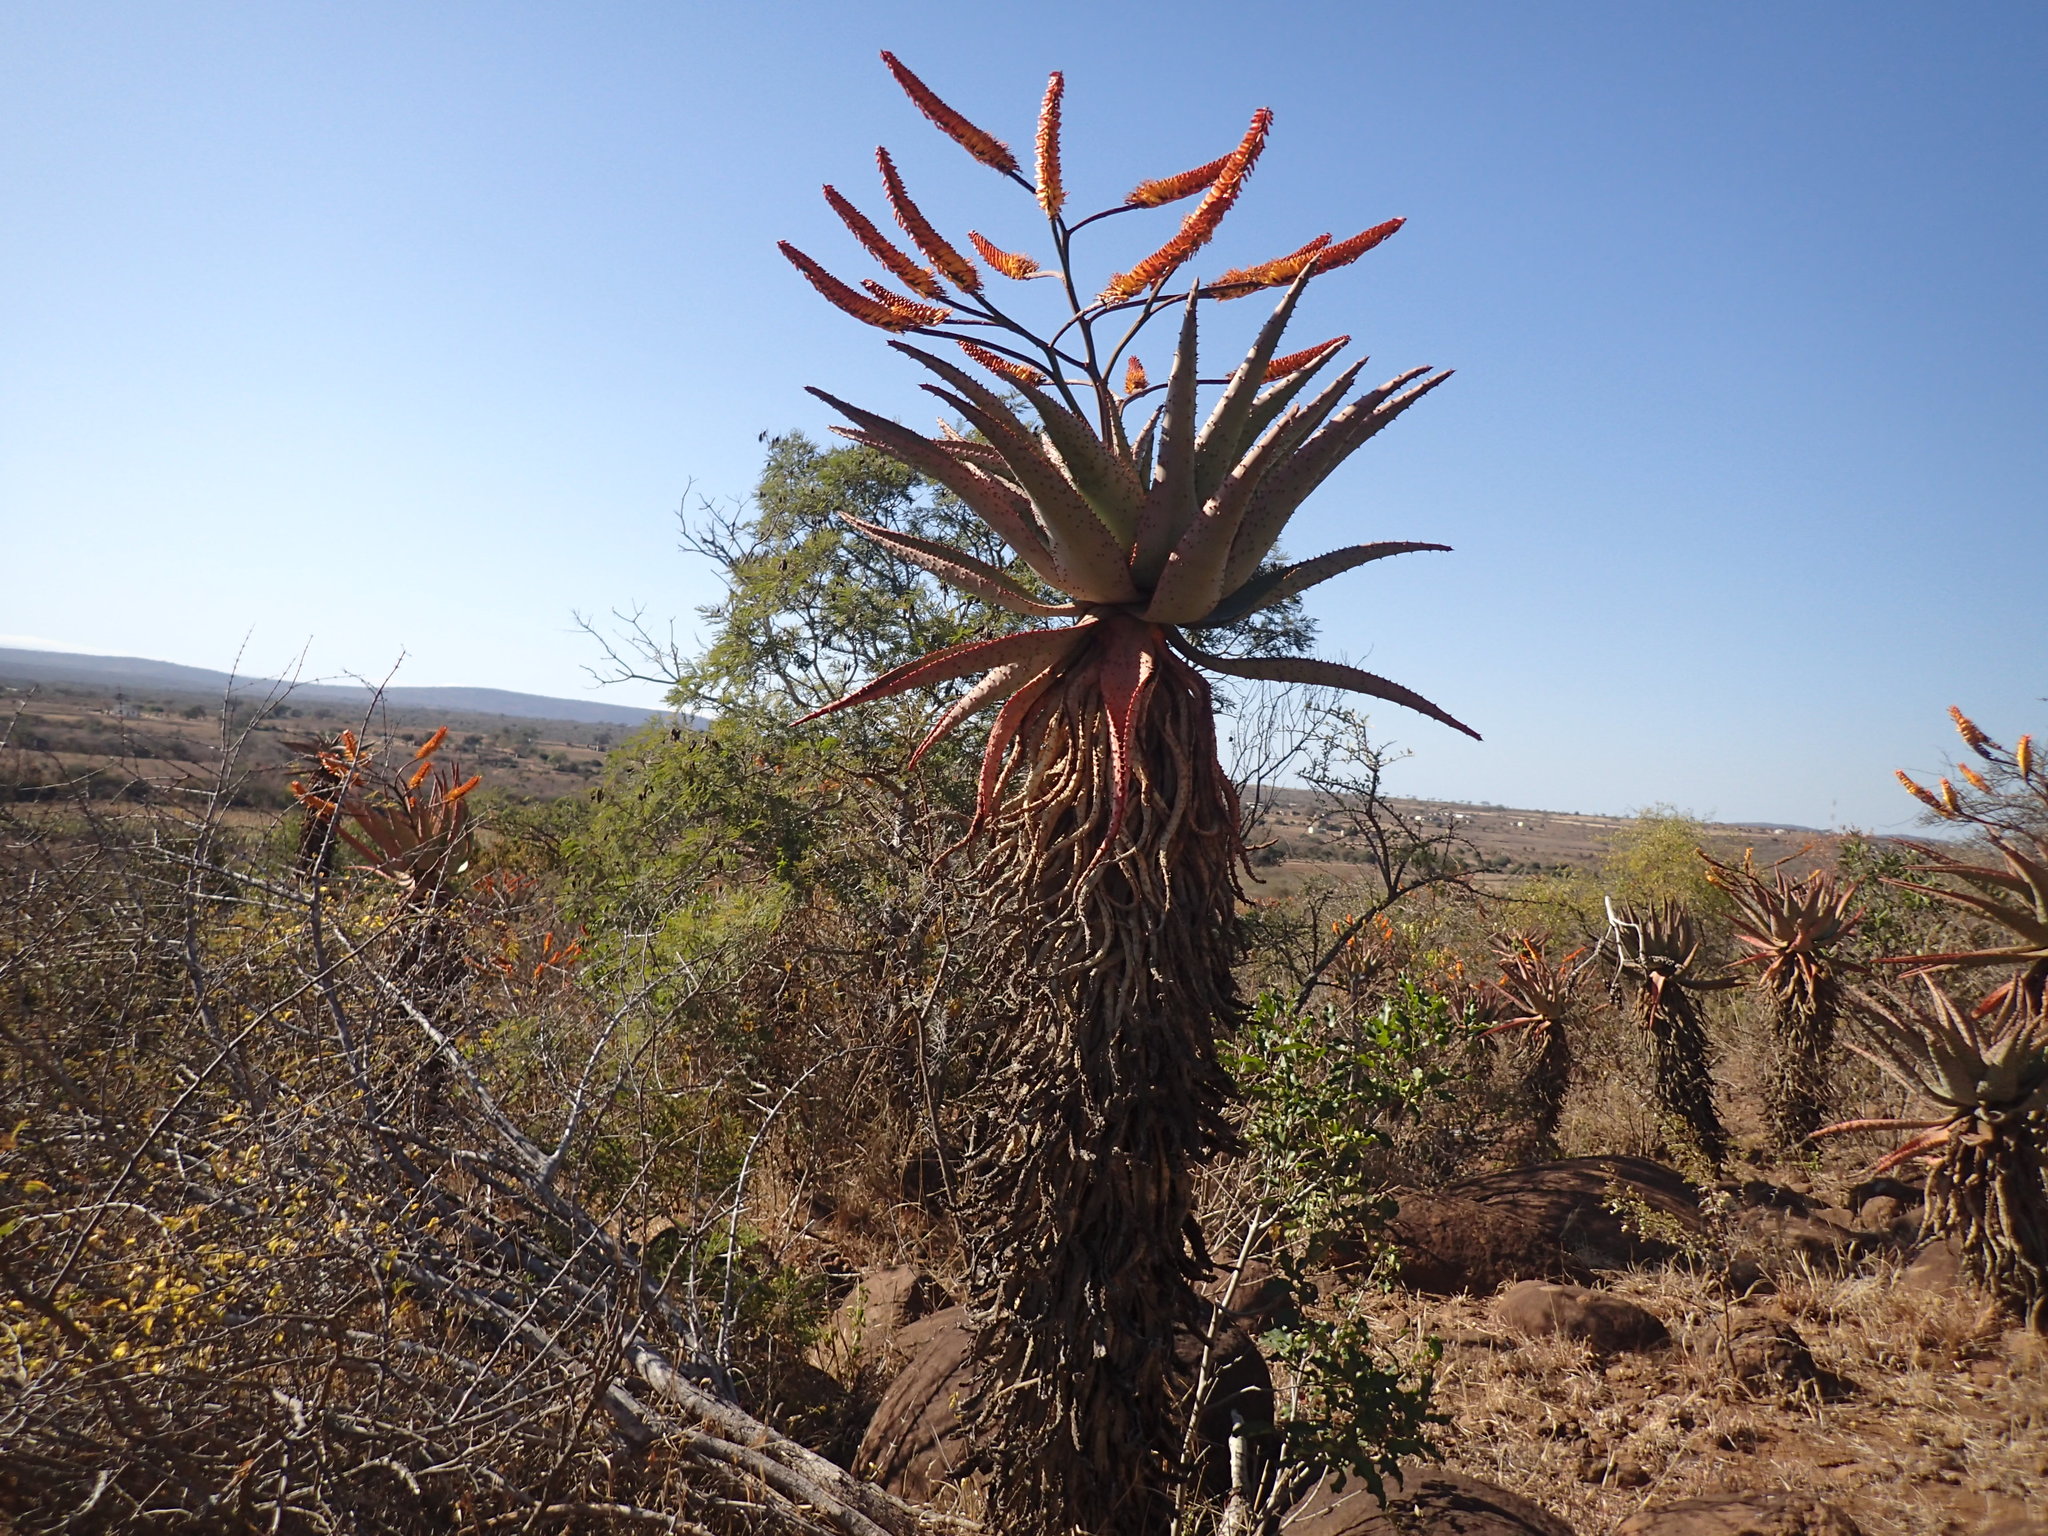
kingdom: Plantae
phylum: Tracheophyta
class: Liliopsida
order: Asparagales
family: Asphodelaceae
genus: Aloe
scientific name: Aloe marlothii
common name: Flat-flowered aloe
